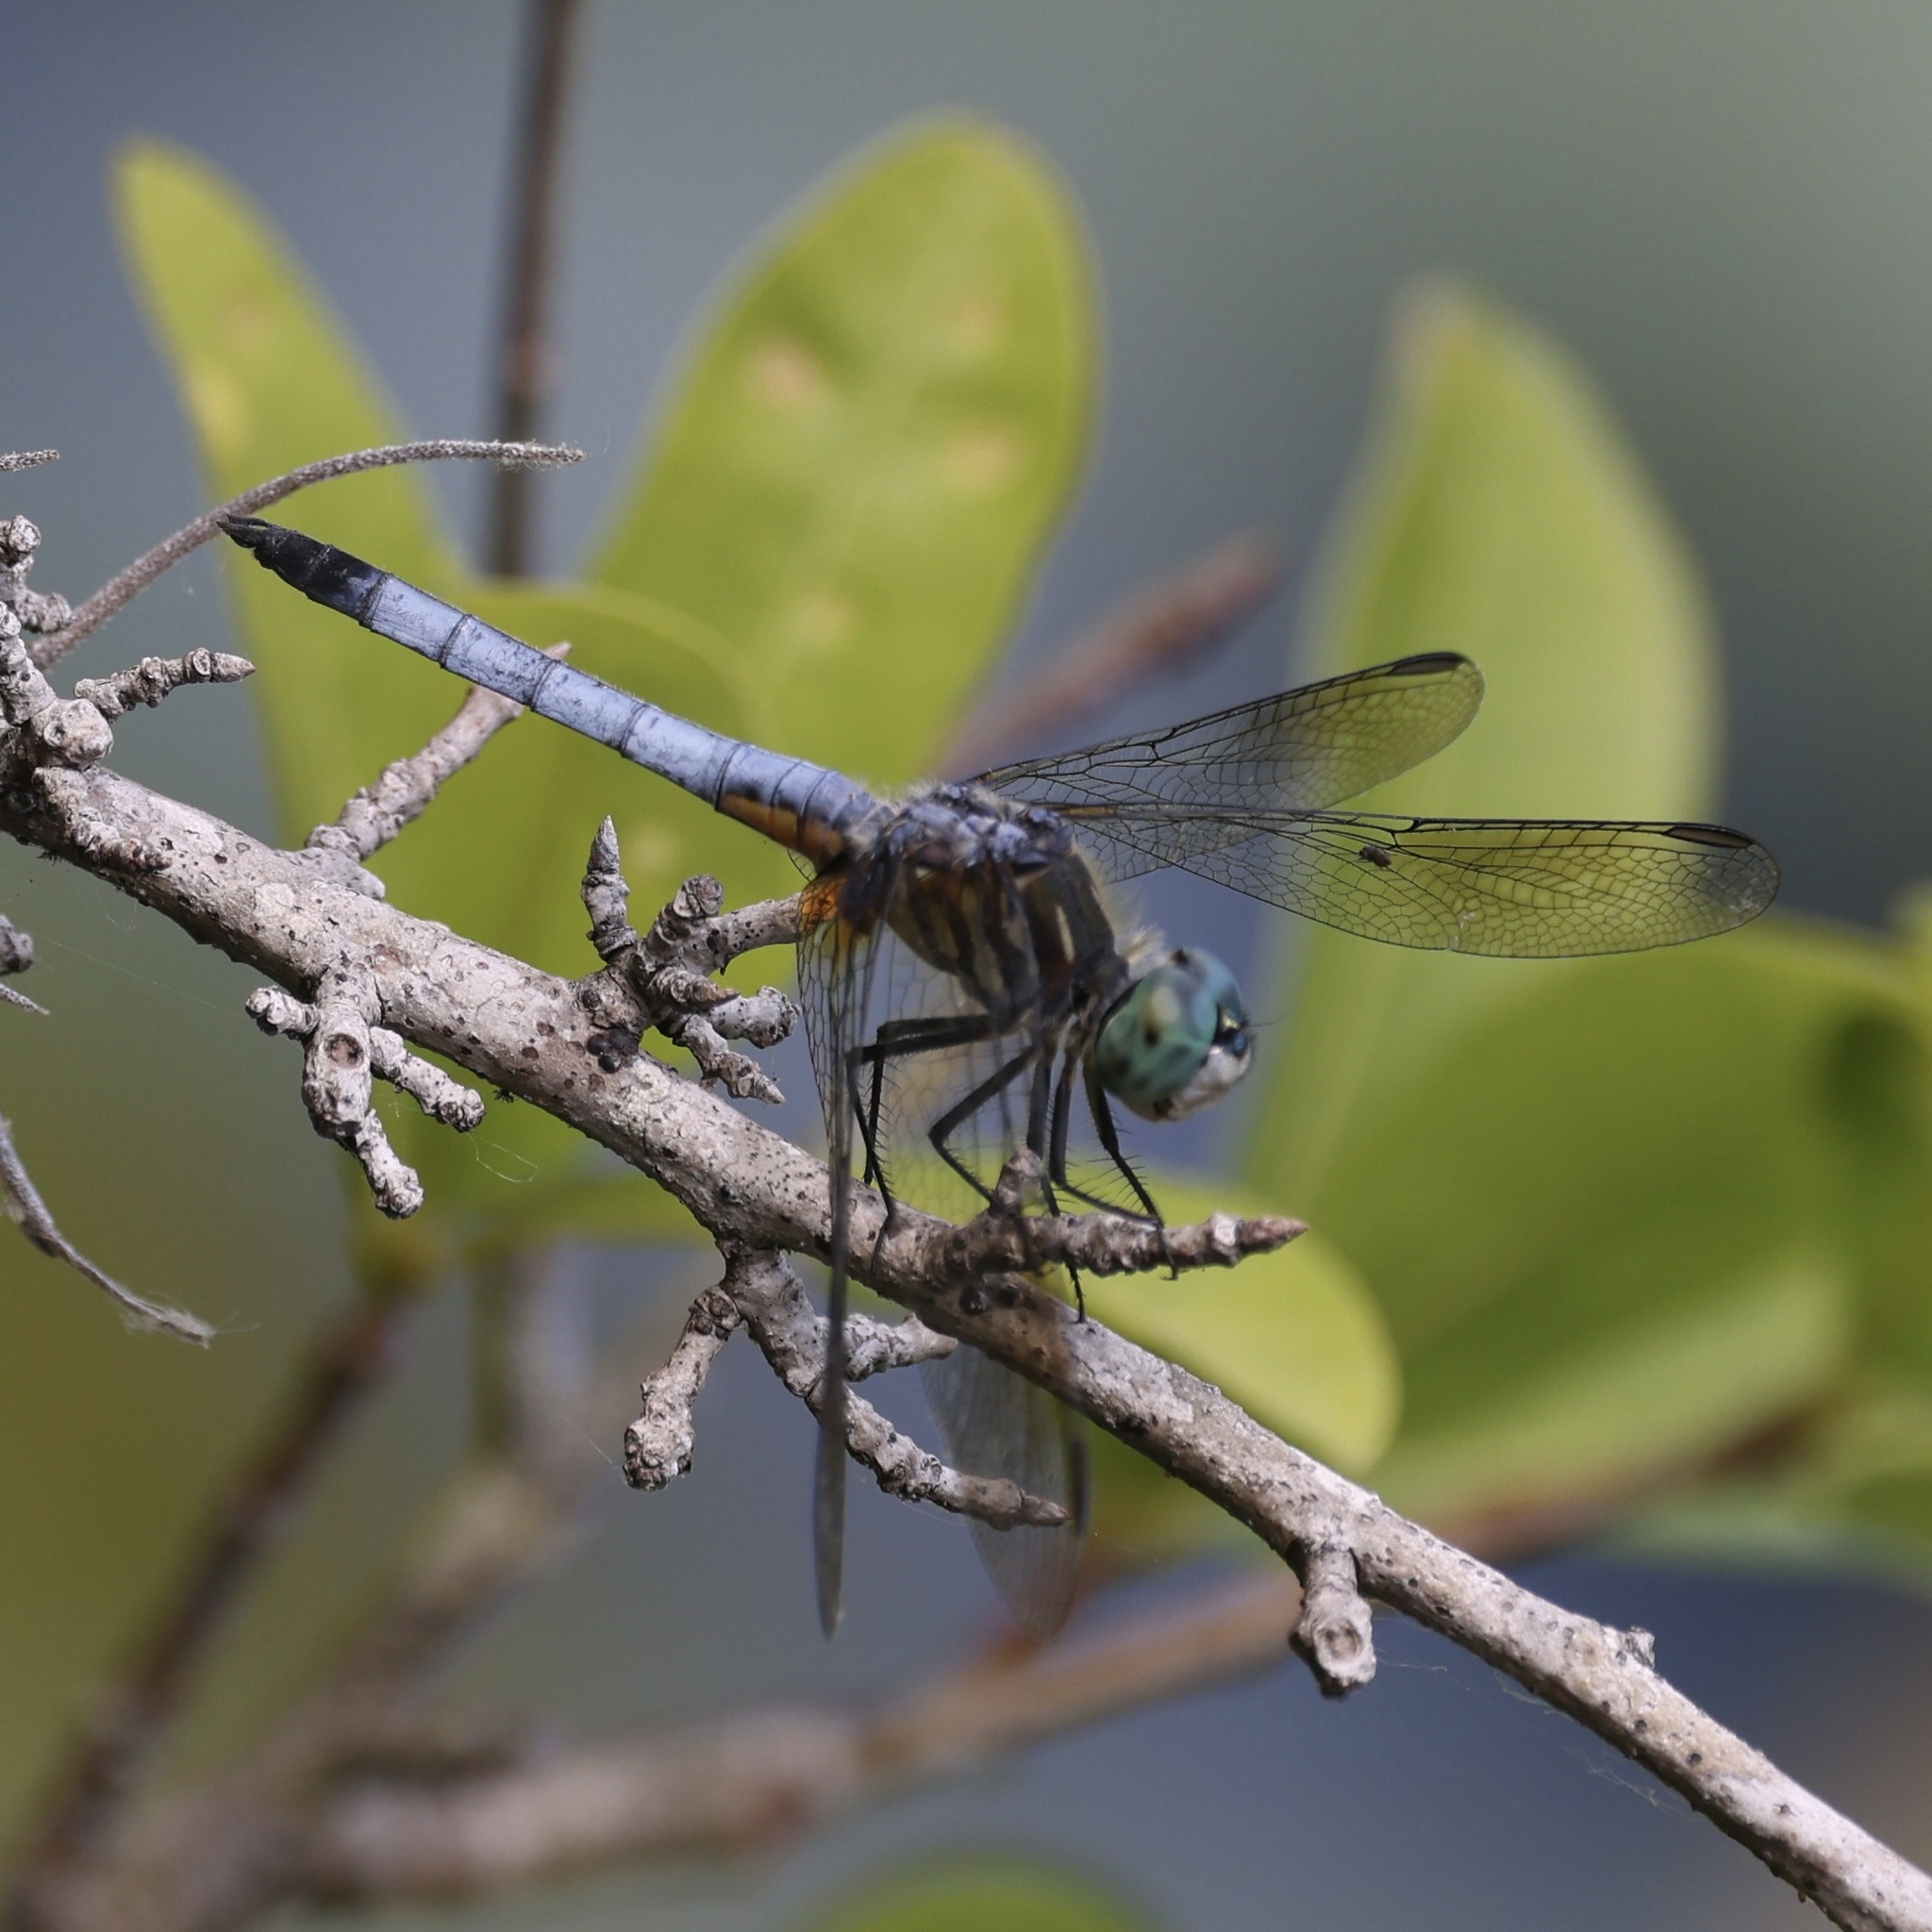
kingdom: Animalia
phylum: Arthropoda
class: Insecta
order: Odonata
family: Libellulidae
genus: Pachydiplax
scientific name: Pachydiplax longipennis
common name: Blue dasher
